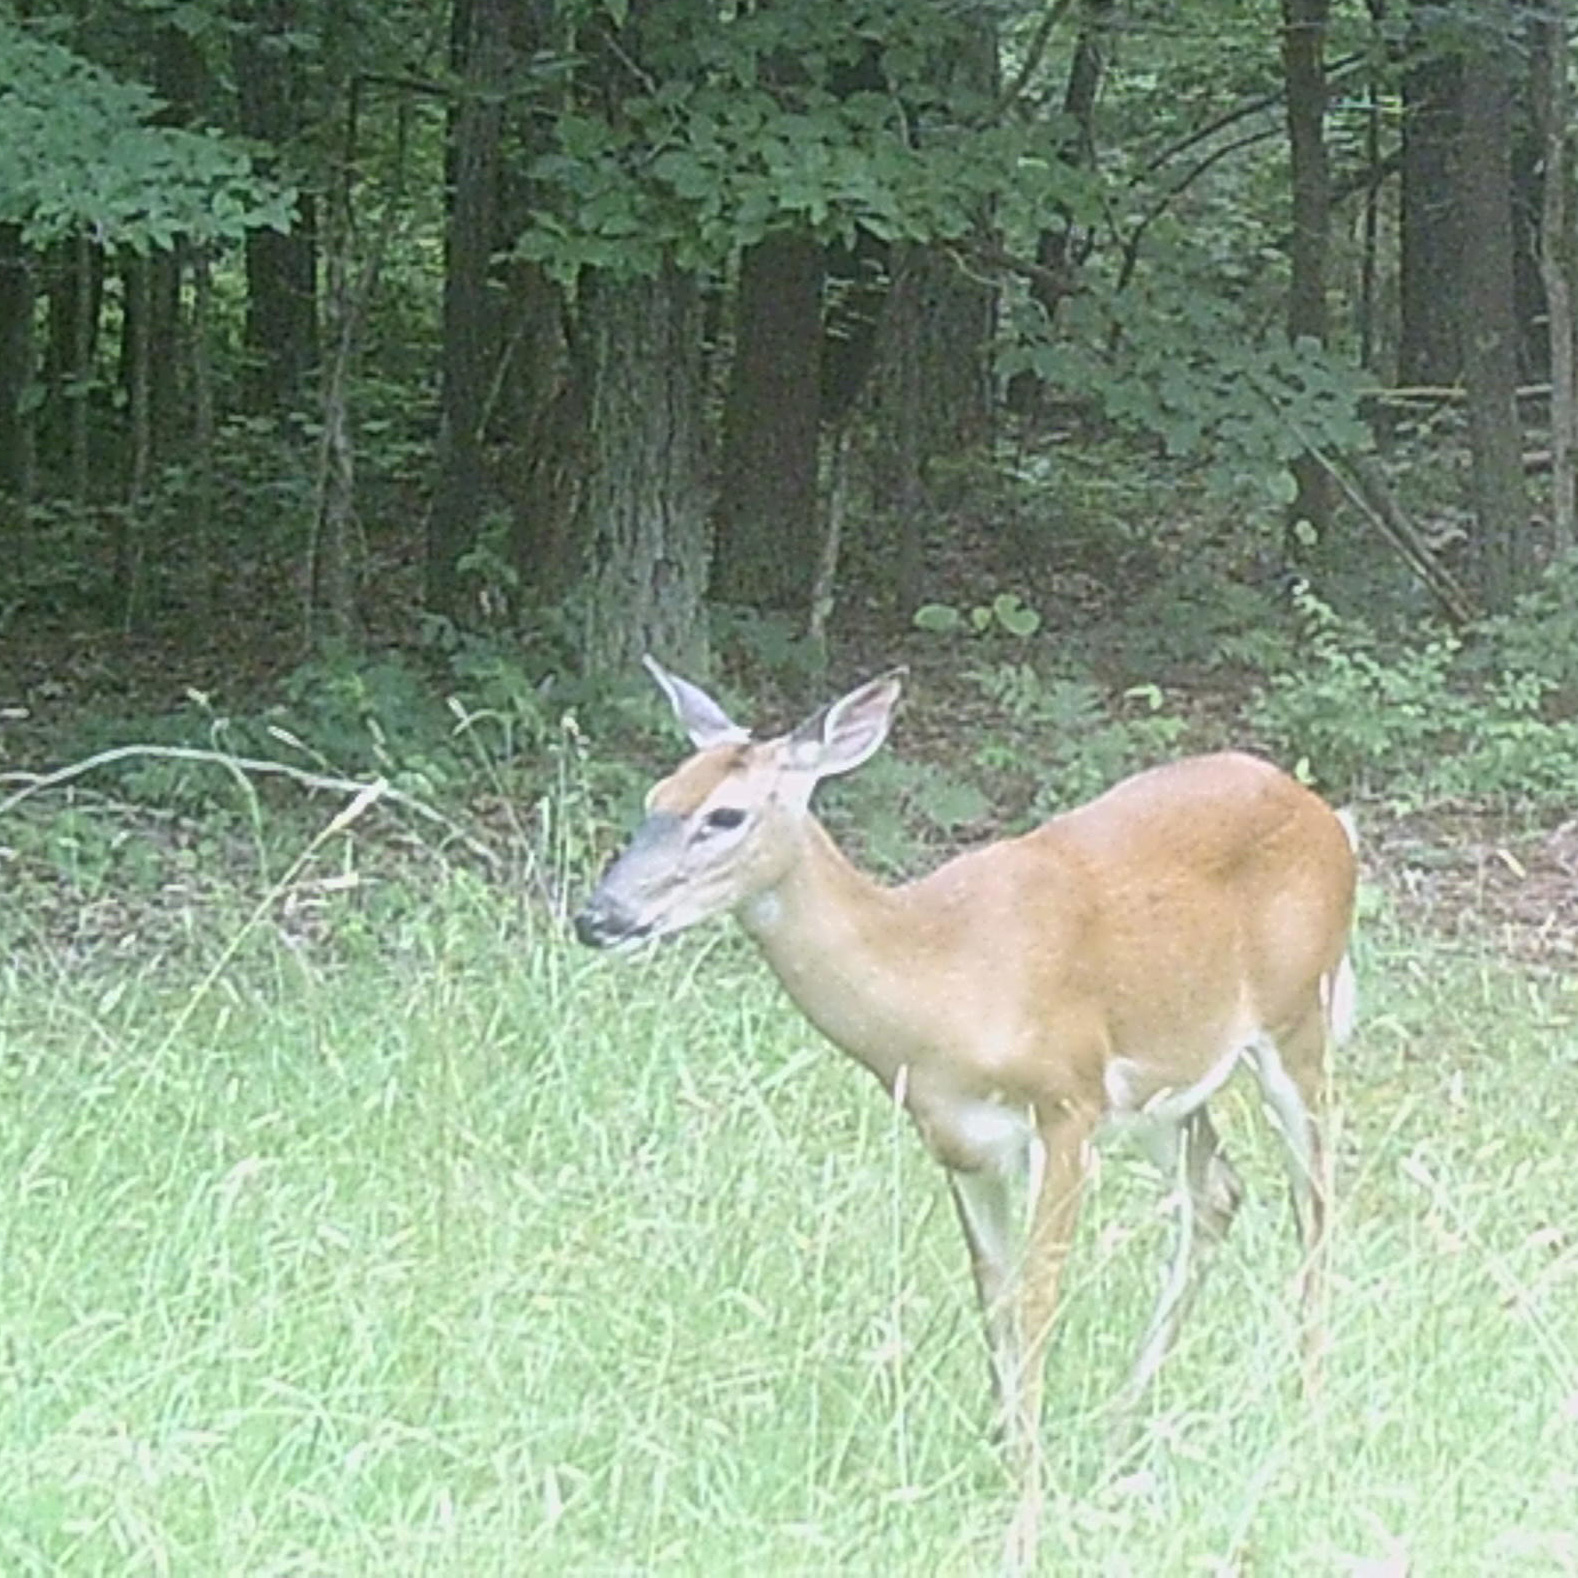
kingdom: Animalia
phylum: Chordata
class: Mammalia
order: Artiodactyla
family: Cervidae
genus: Odocoileus
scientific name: Odocoileus virginianus
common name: White-tailed deer
